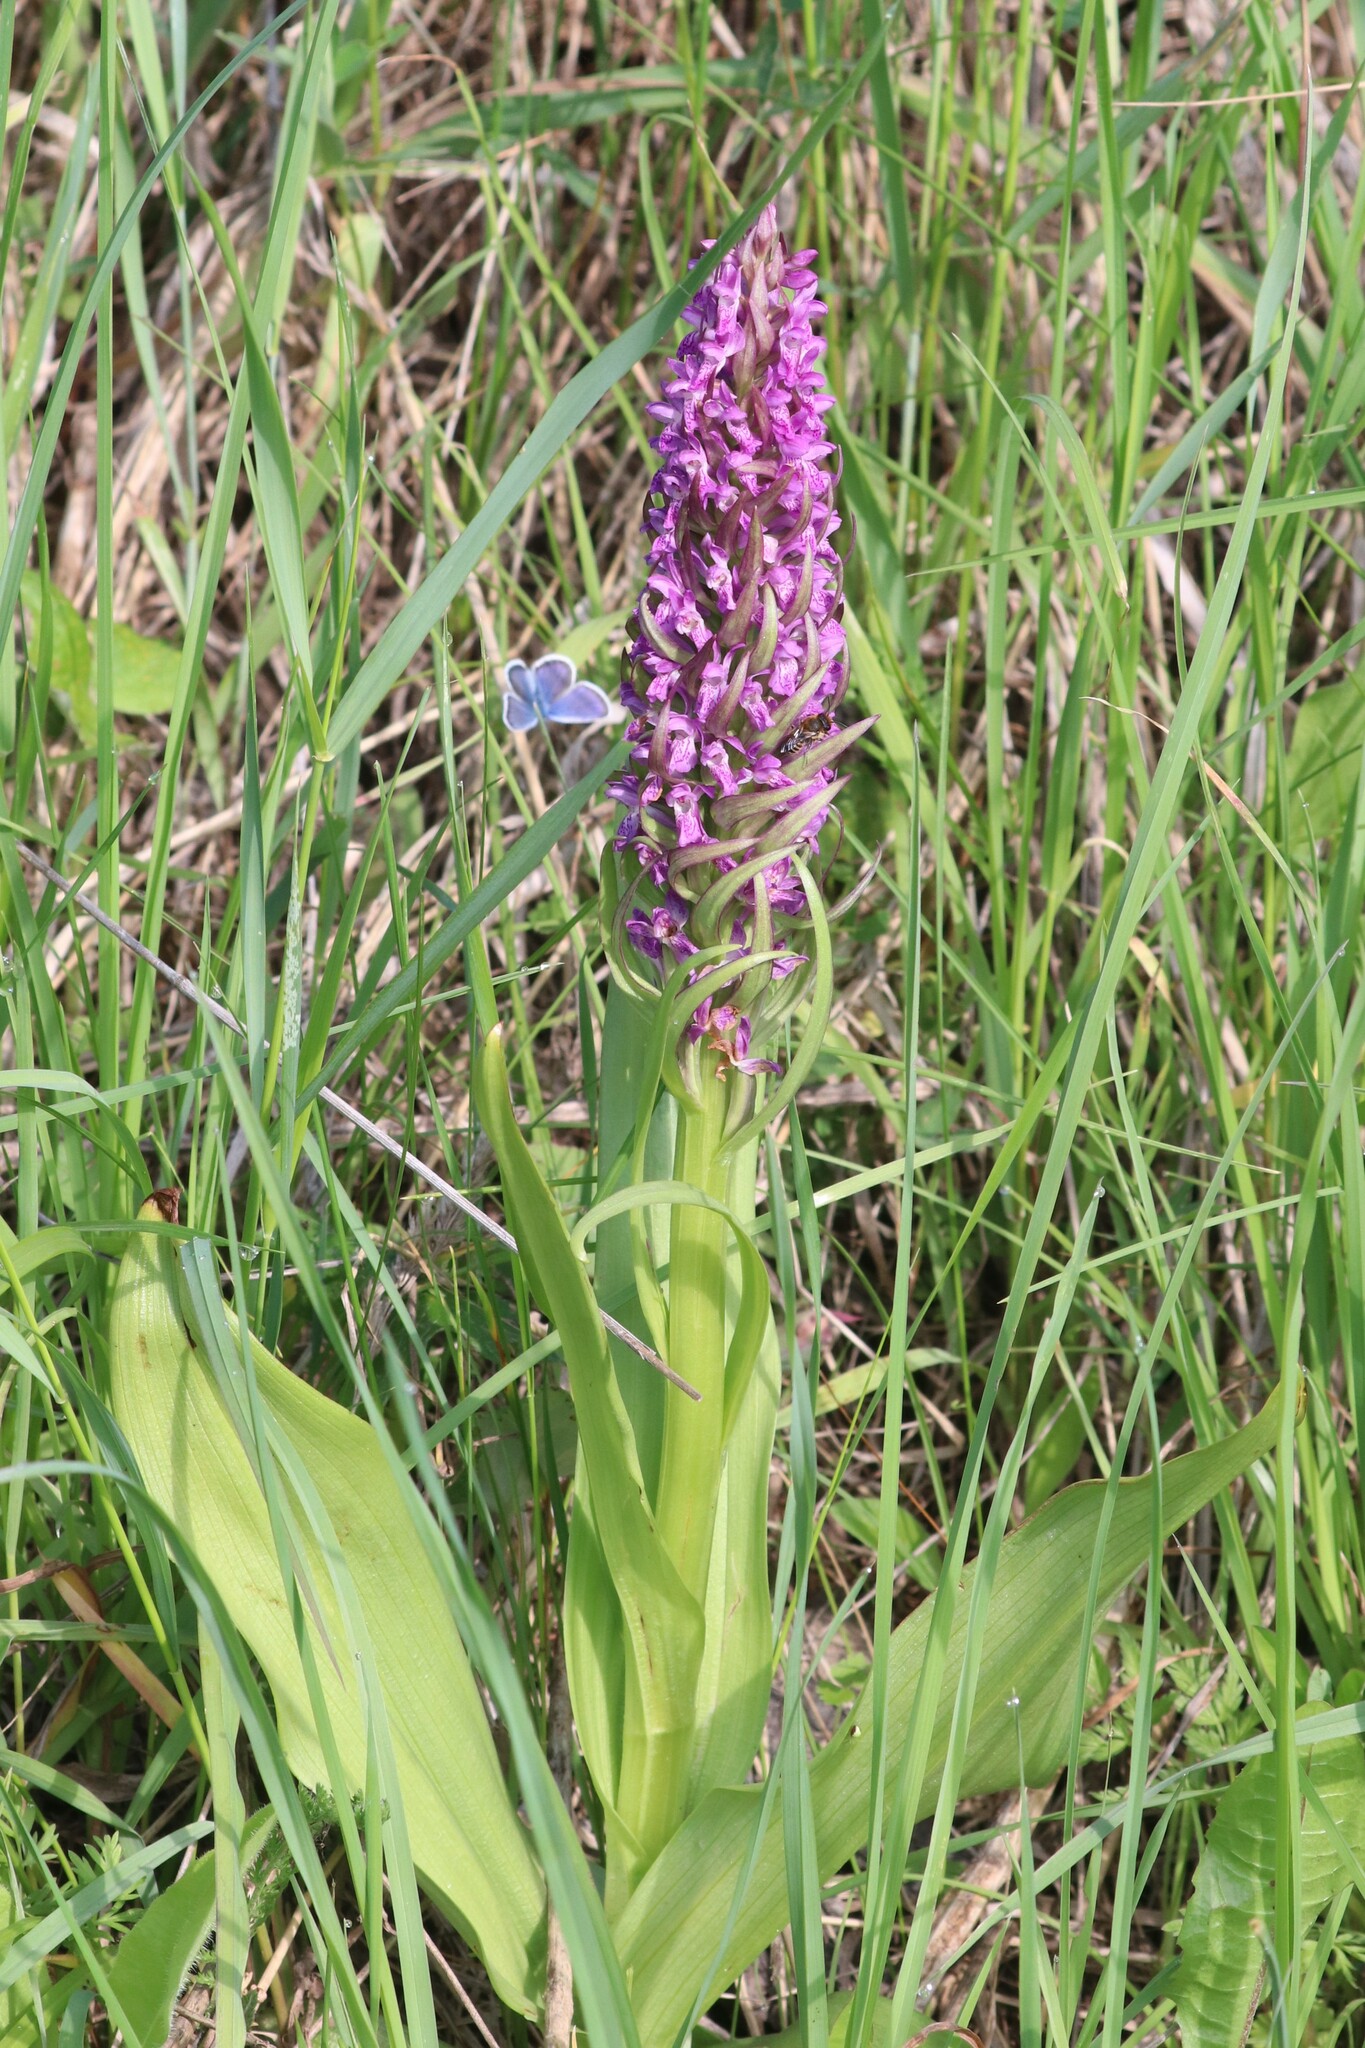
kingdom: Plantae
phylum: Tracheophyta
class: Liliopsida
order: Asparagales
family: Orchidaceae
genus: Dactylorhiza
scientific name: Dactylorhiza incarnata
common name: Early marsh-orchid
